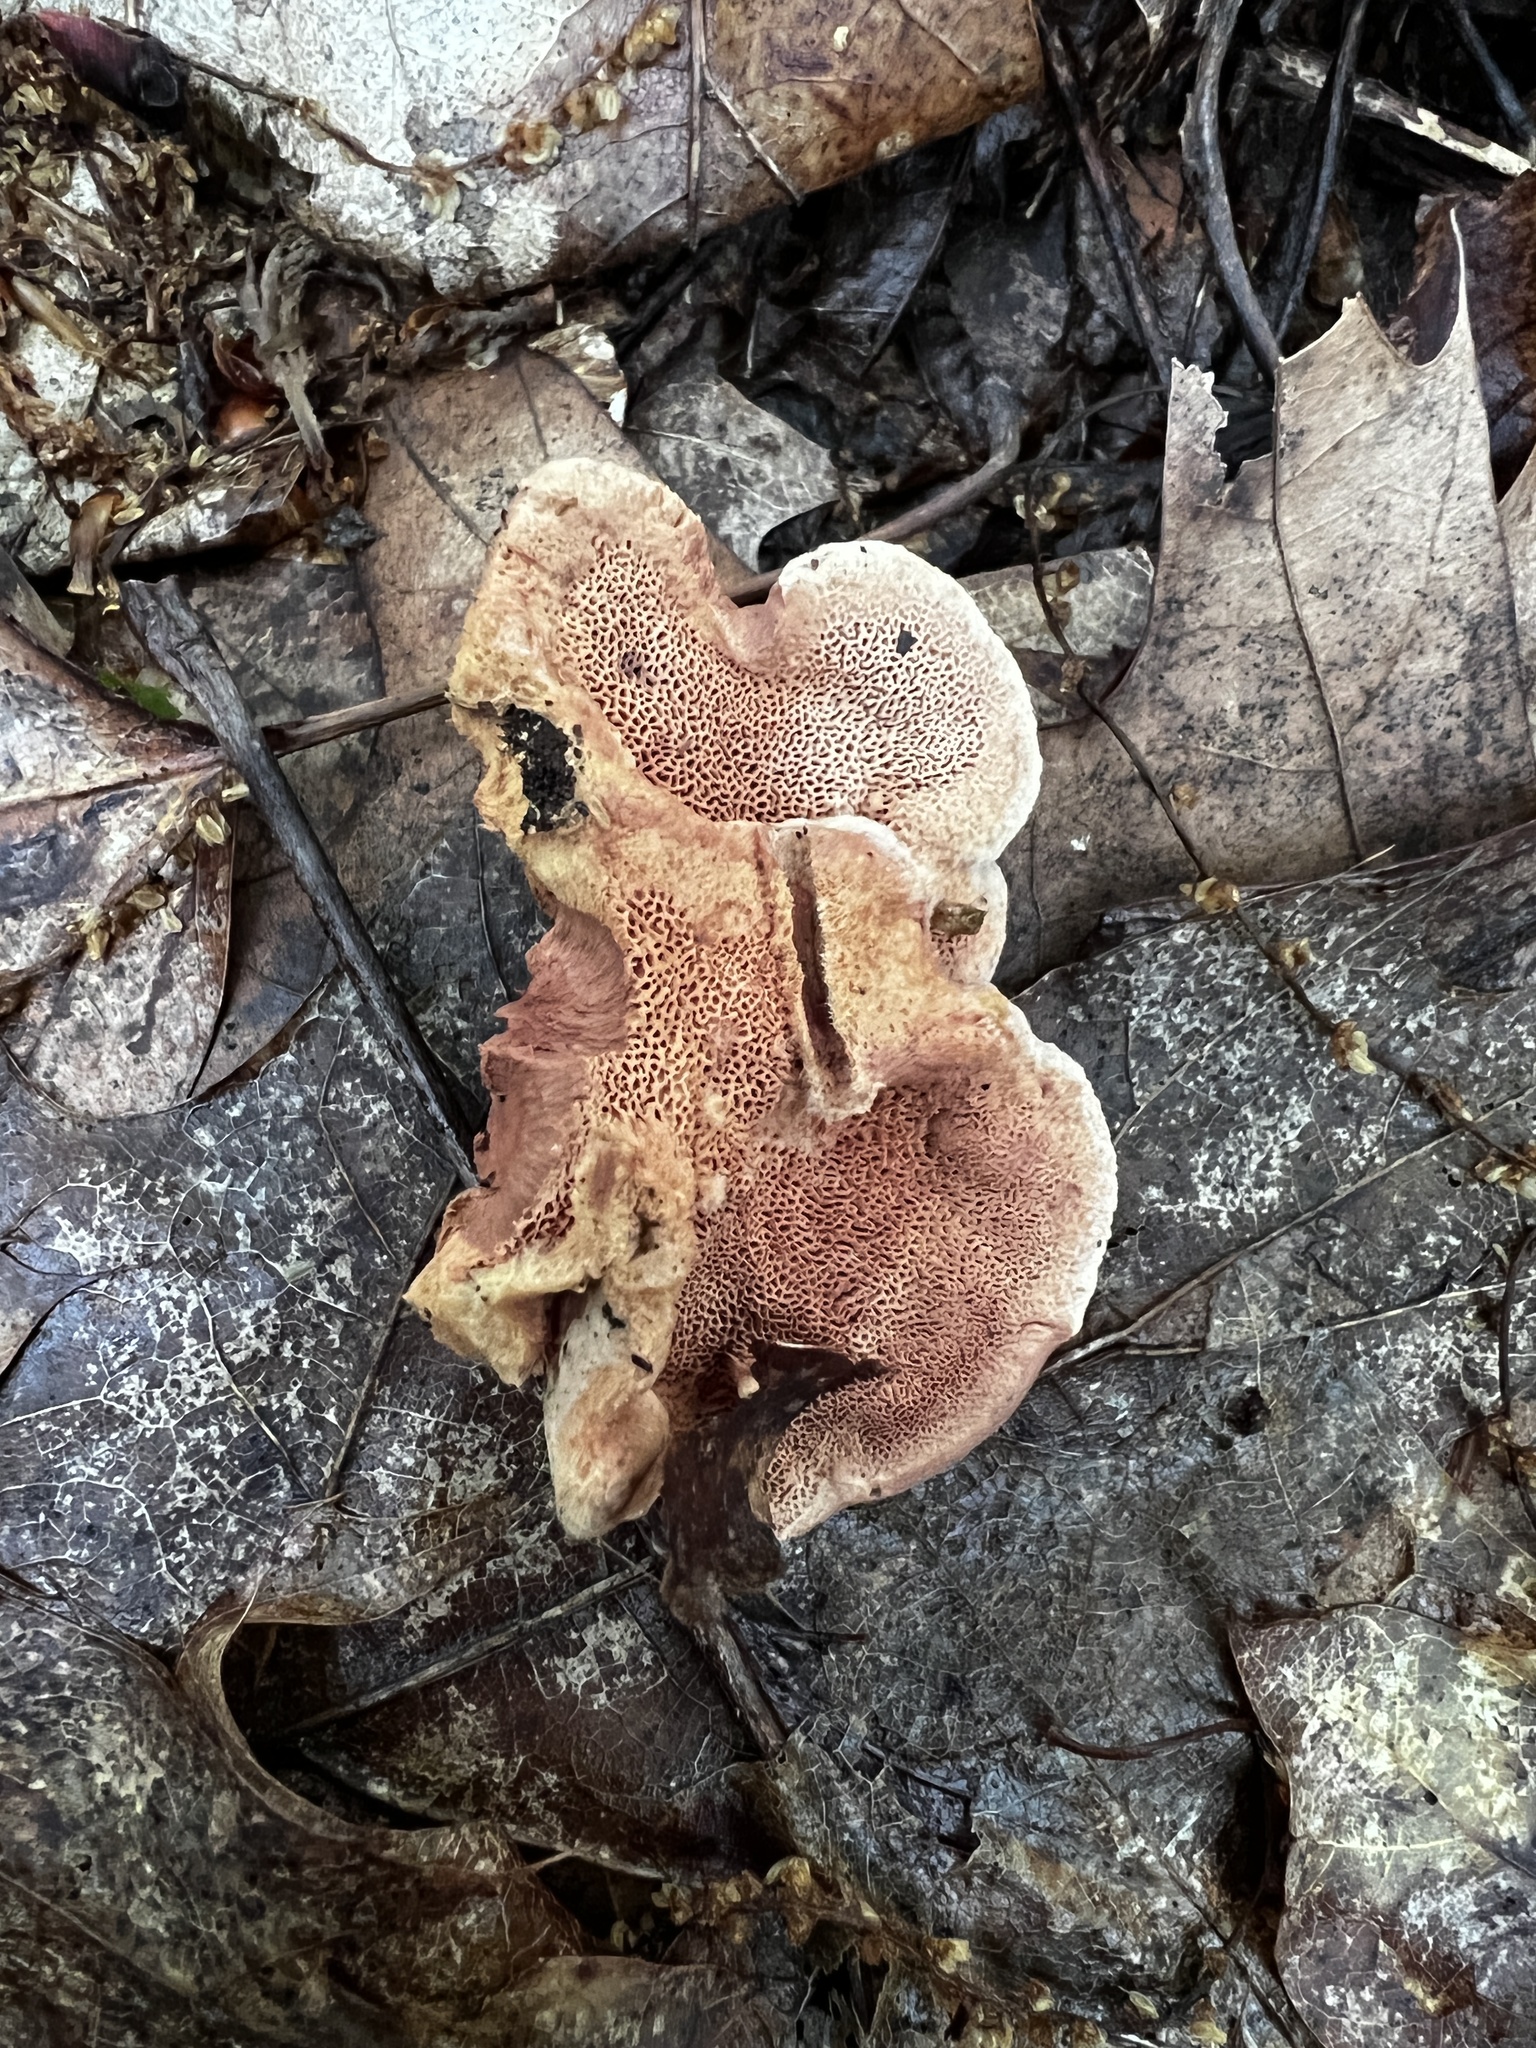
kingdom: Fungi
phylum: Basidiomycota
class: Agaricomycetes
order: Polyporales
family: Phanerochaetaceae
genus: Hapalopilus
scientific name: Hapalopilus rutilans
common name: Tender nesting polypore
